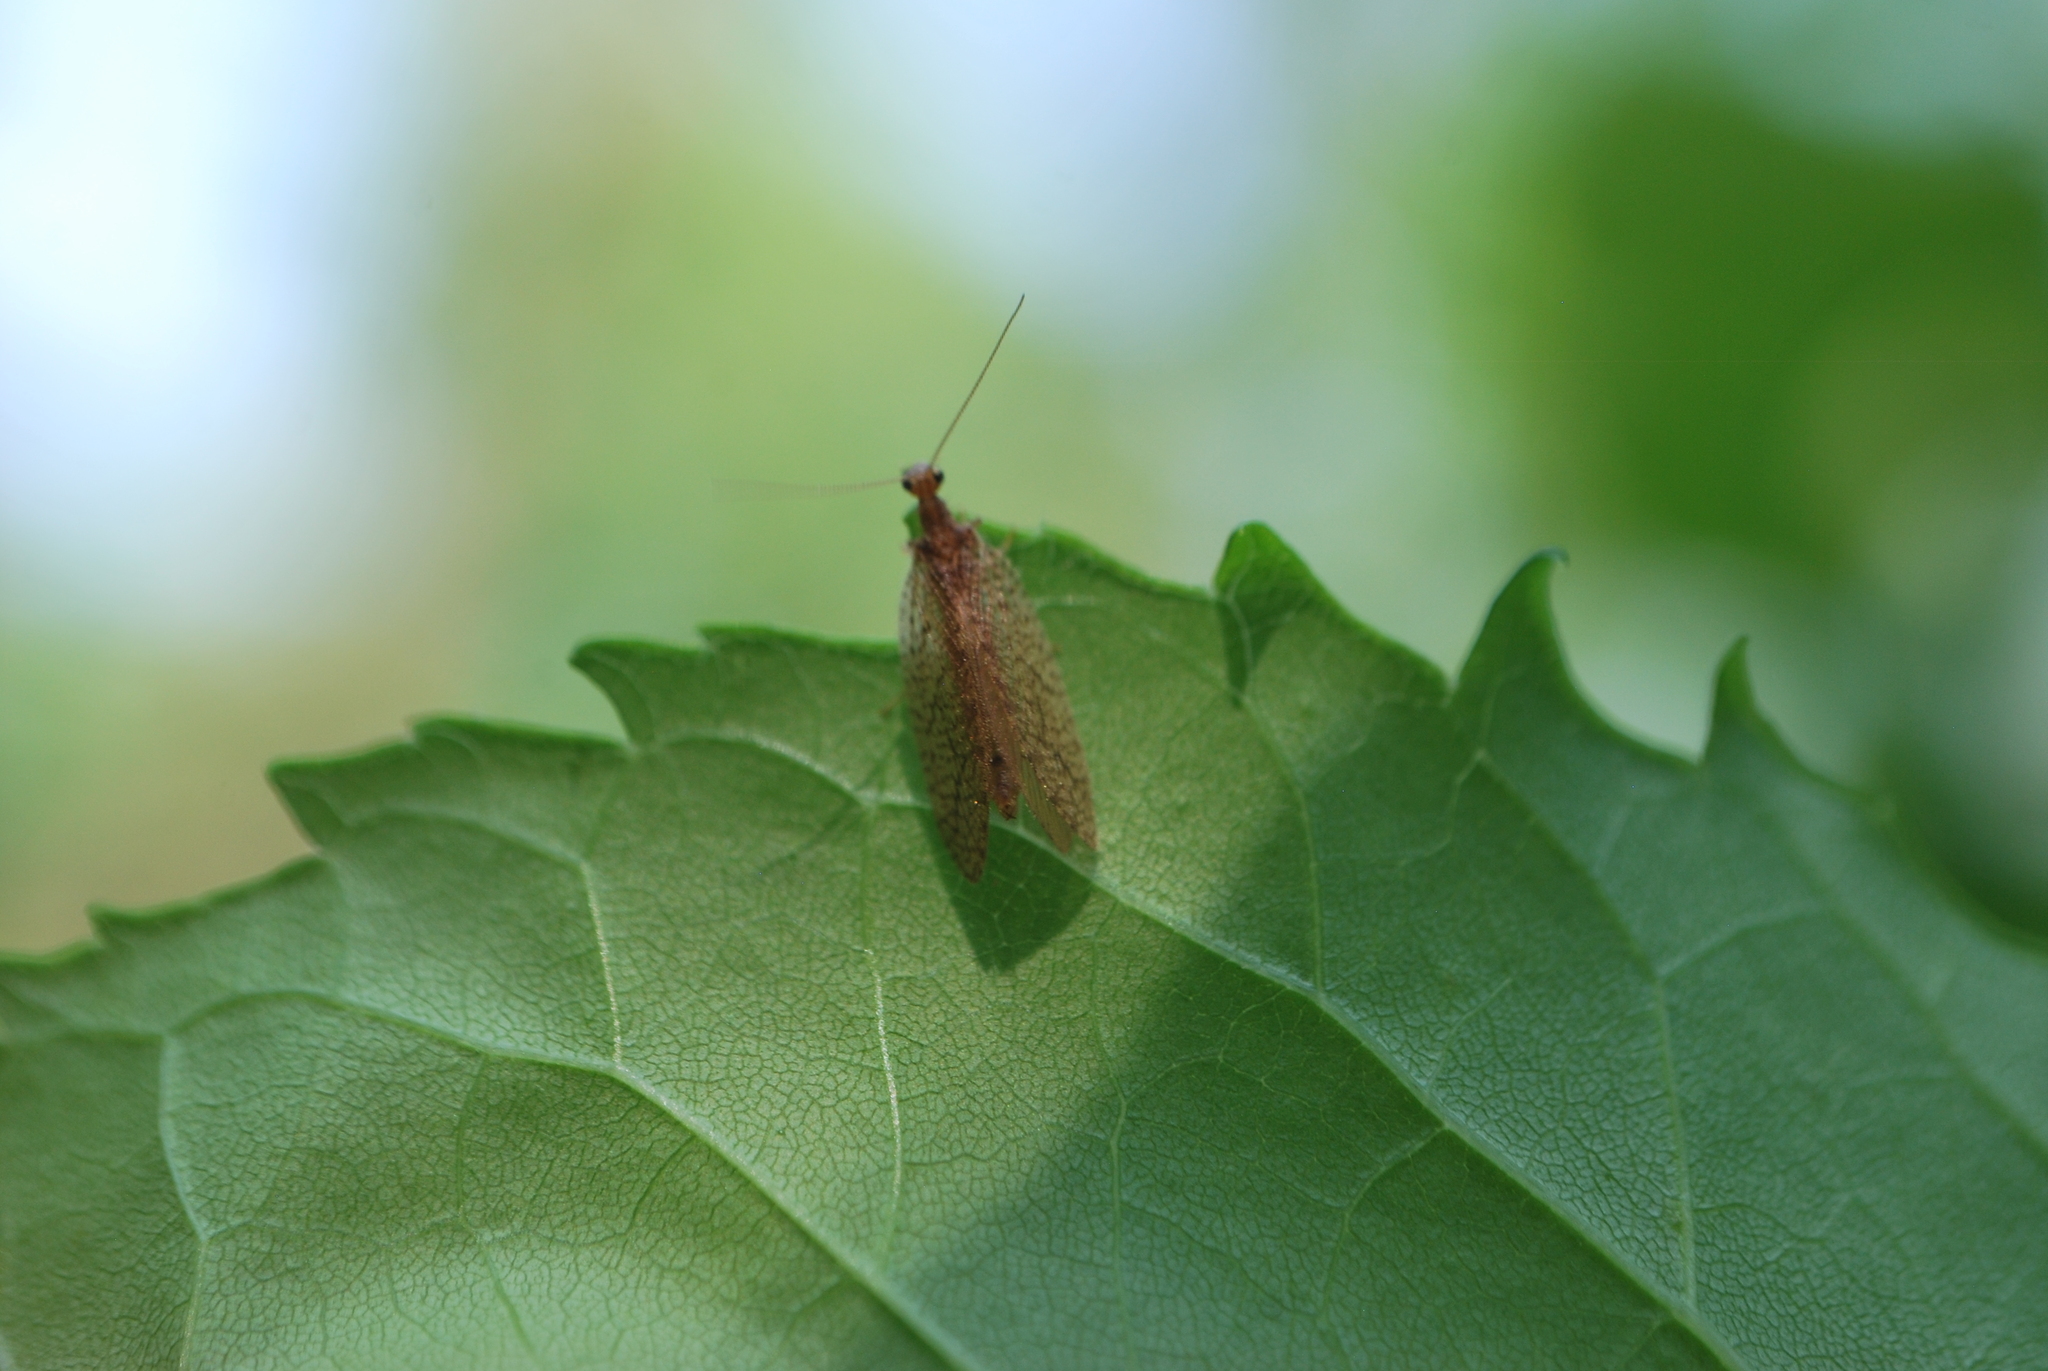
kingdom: Animalia
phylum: Arthropoda
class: Insecta
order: Neuroptera
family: Hemerobiidae
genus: Micromus
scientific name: Micromus posticus
